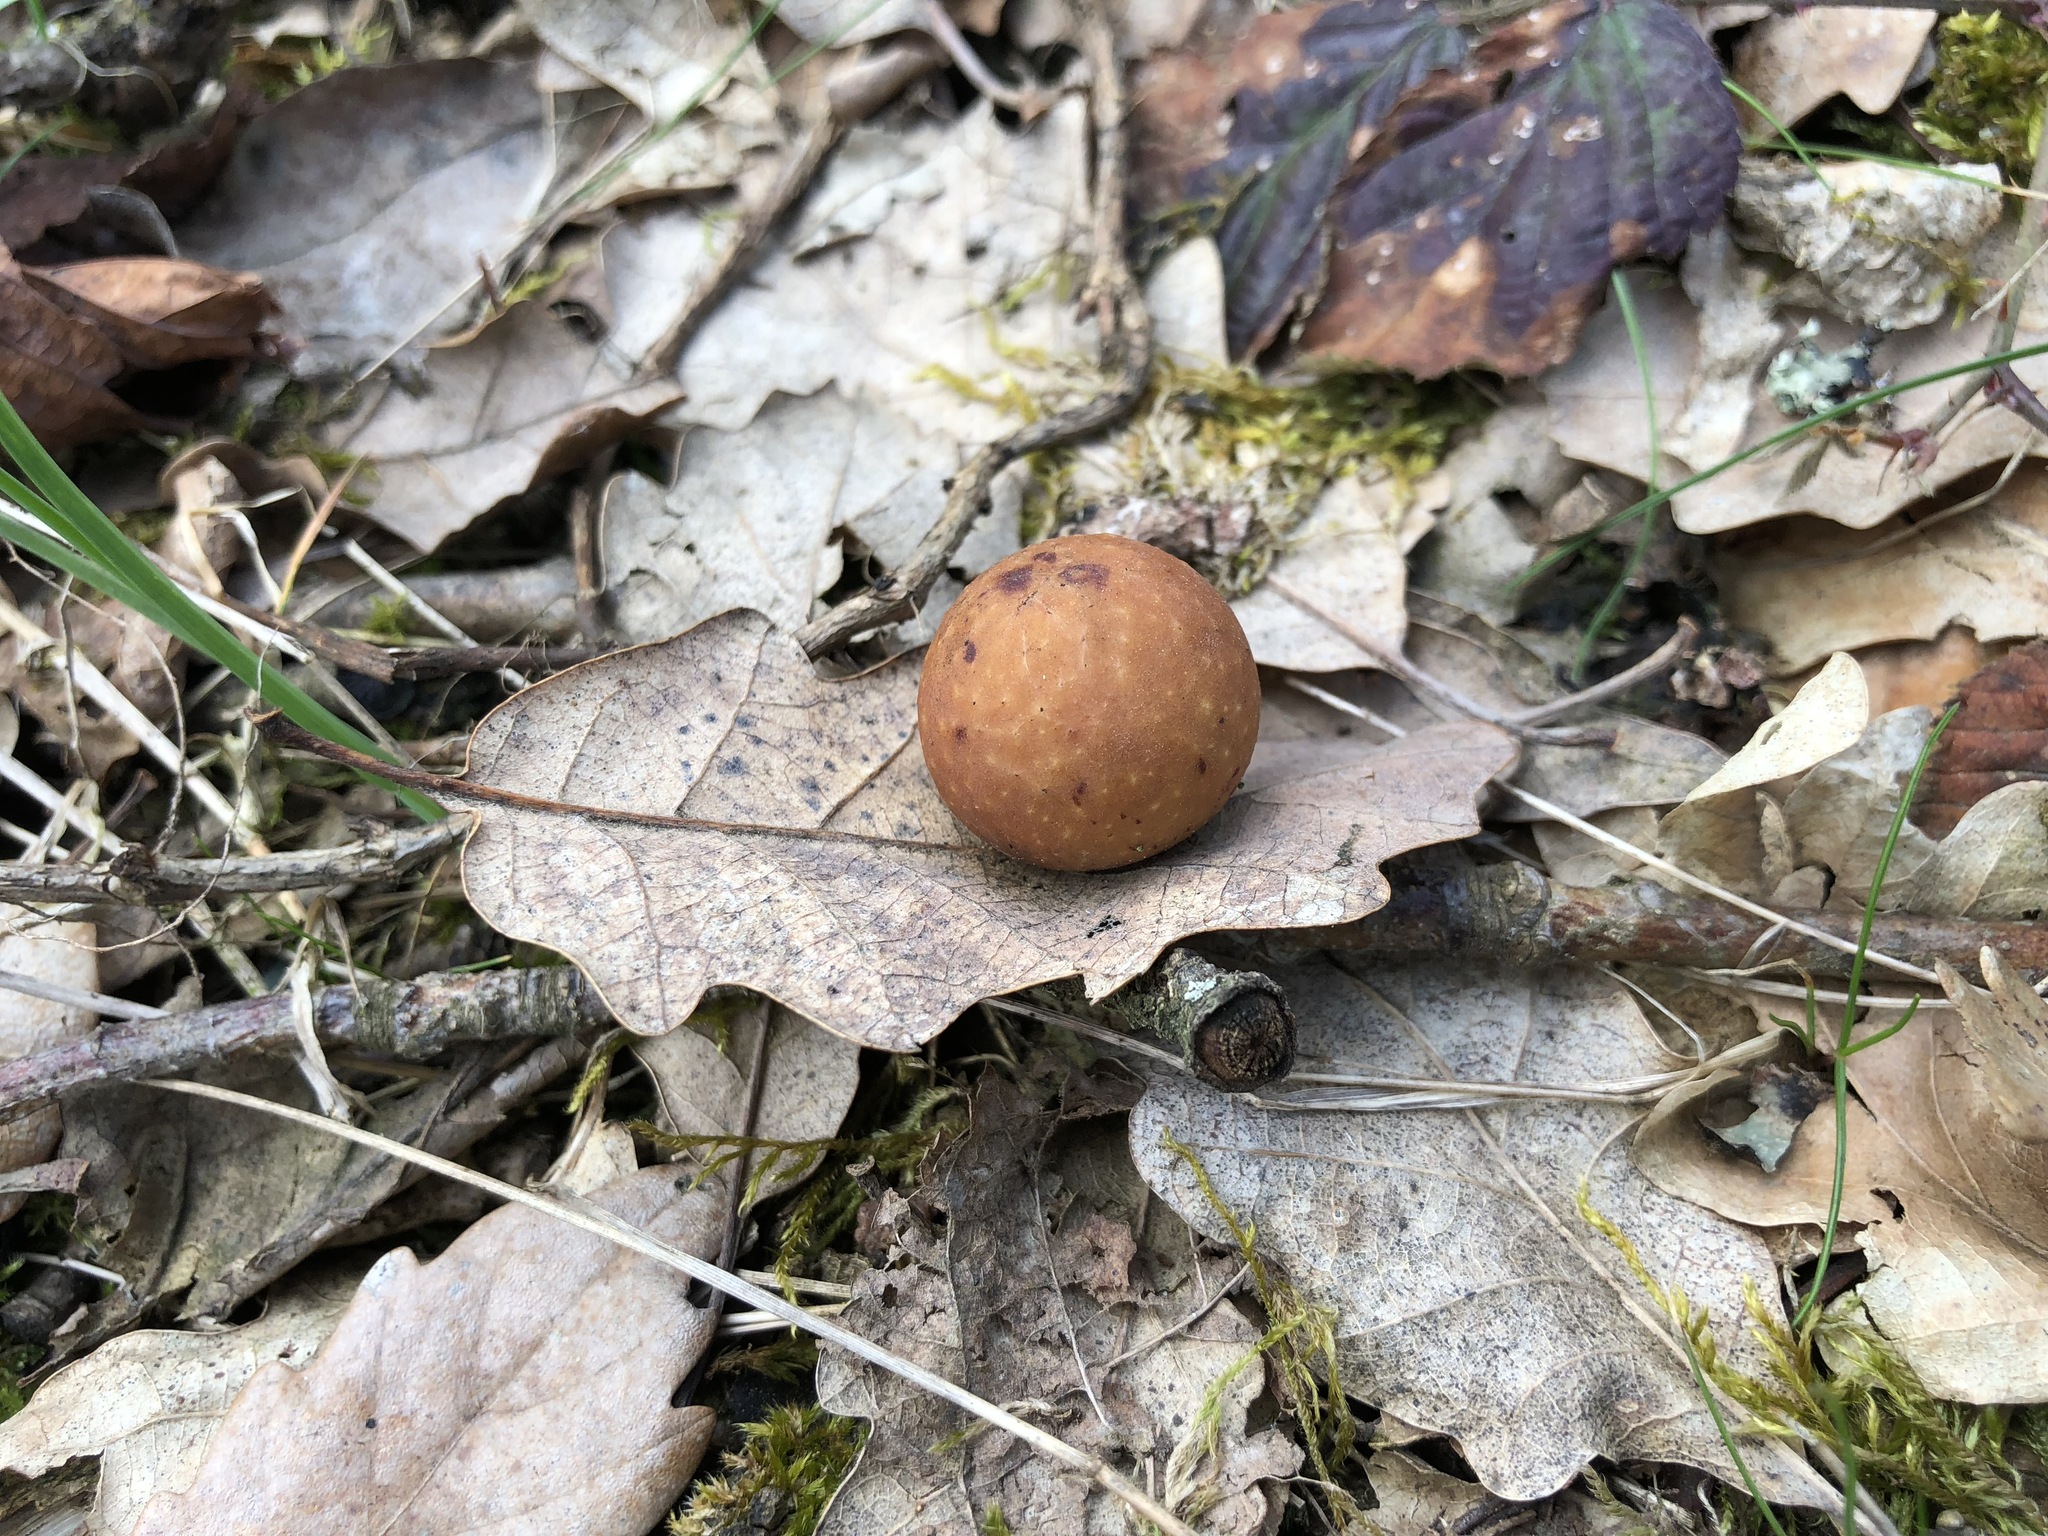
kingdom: Animalia
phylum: Arthropoda
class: Insecta
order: Hymenoptera
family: Cynipidae
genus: Cynips
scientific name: Cynips quercusfolii
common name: Cherry gall
